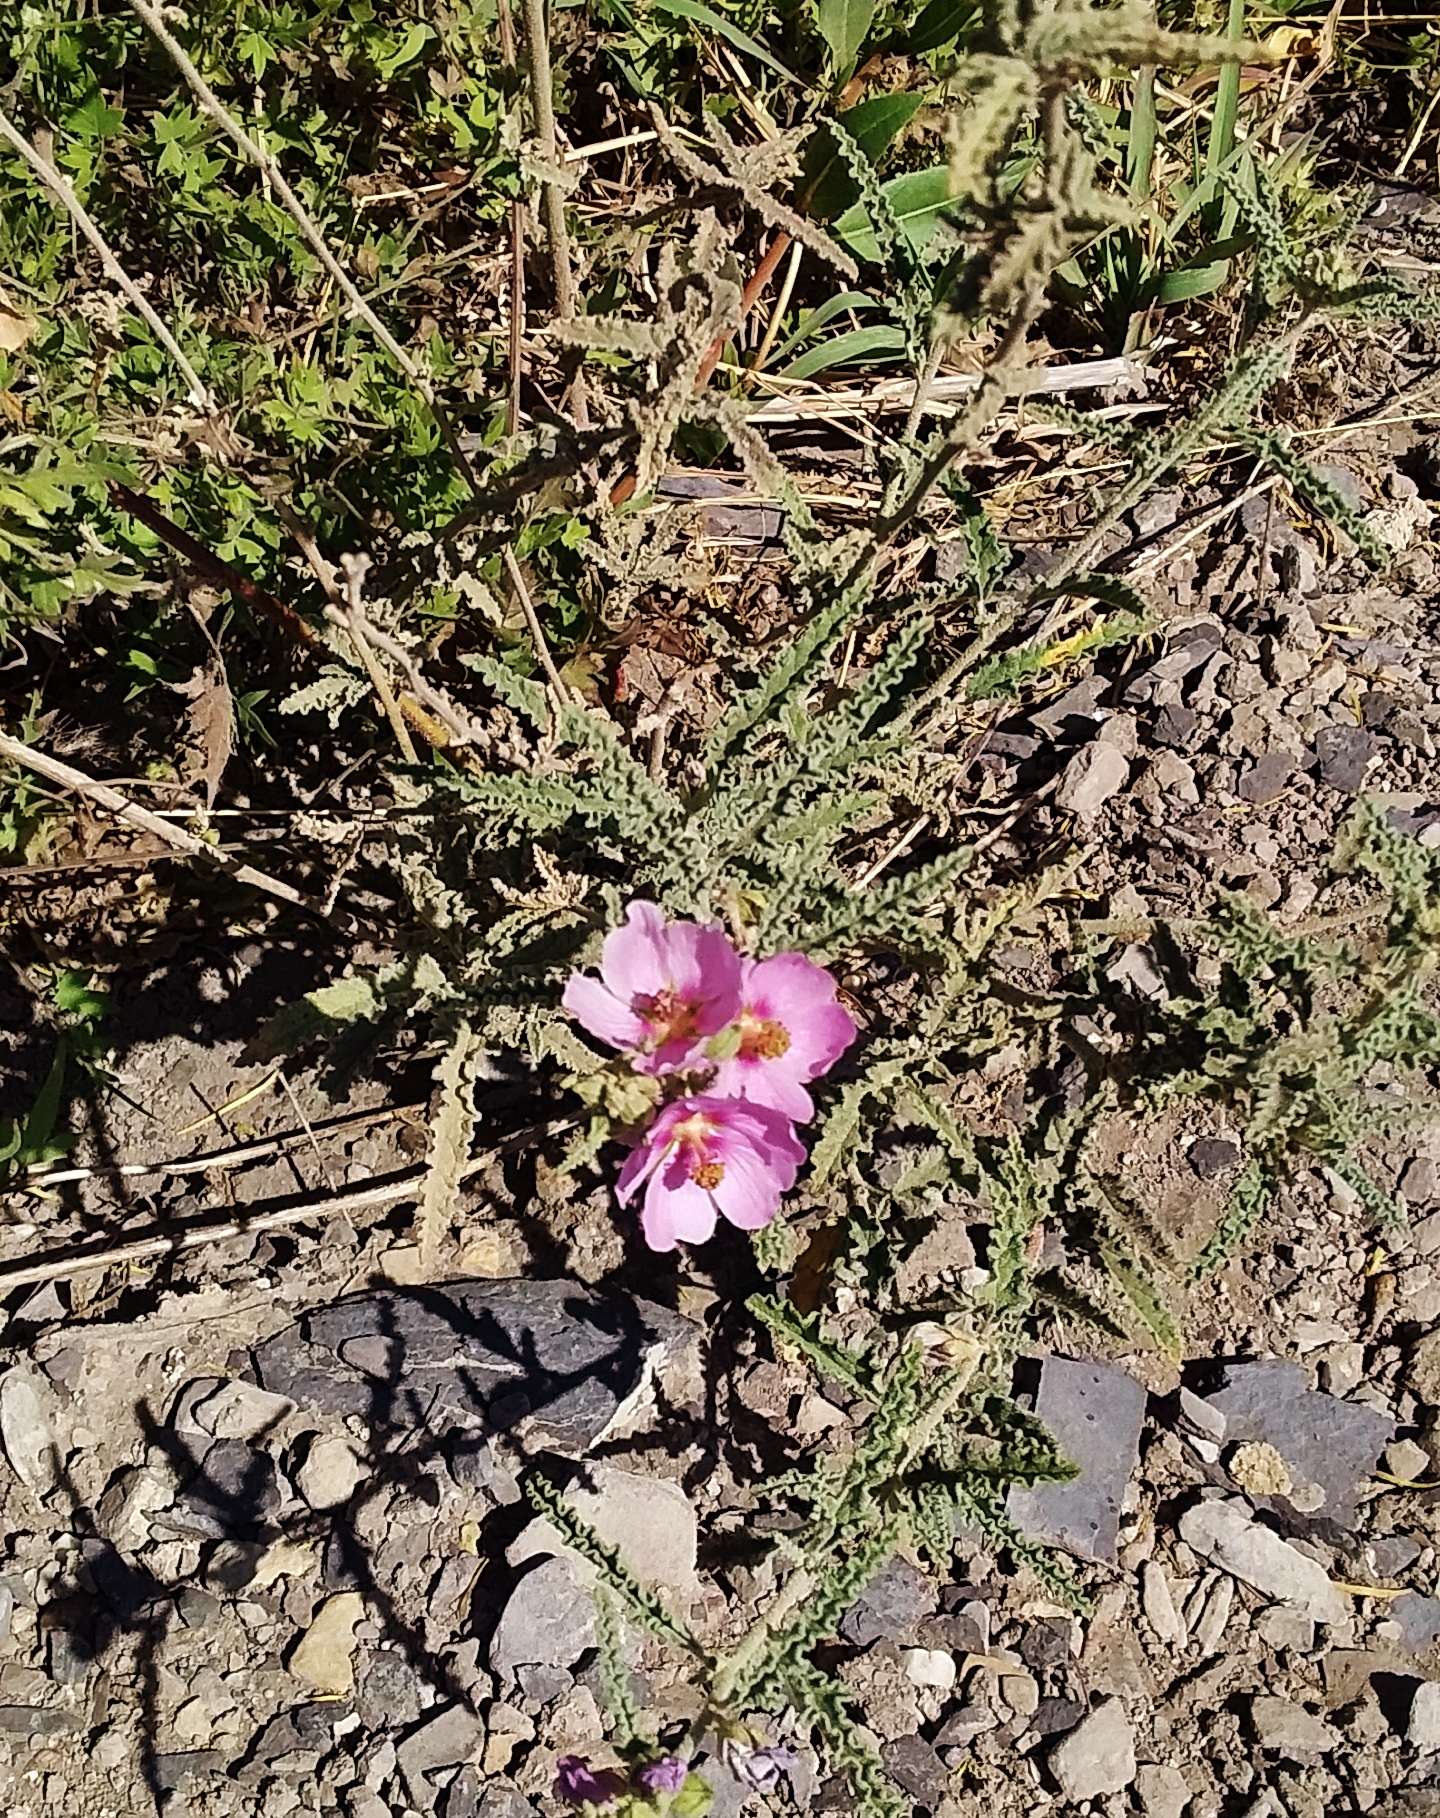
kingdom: Plantae
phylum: Tracheophyta
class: Magnoliopsida
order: Malvales
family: Malvaceae
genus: Sphaeralcea
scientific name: Sphaeralcea angustifolia
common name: Copper globe-mallow
